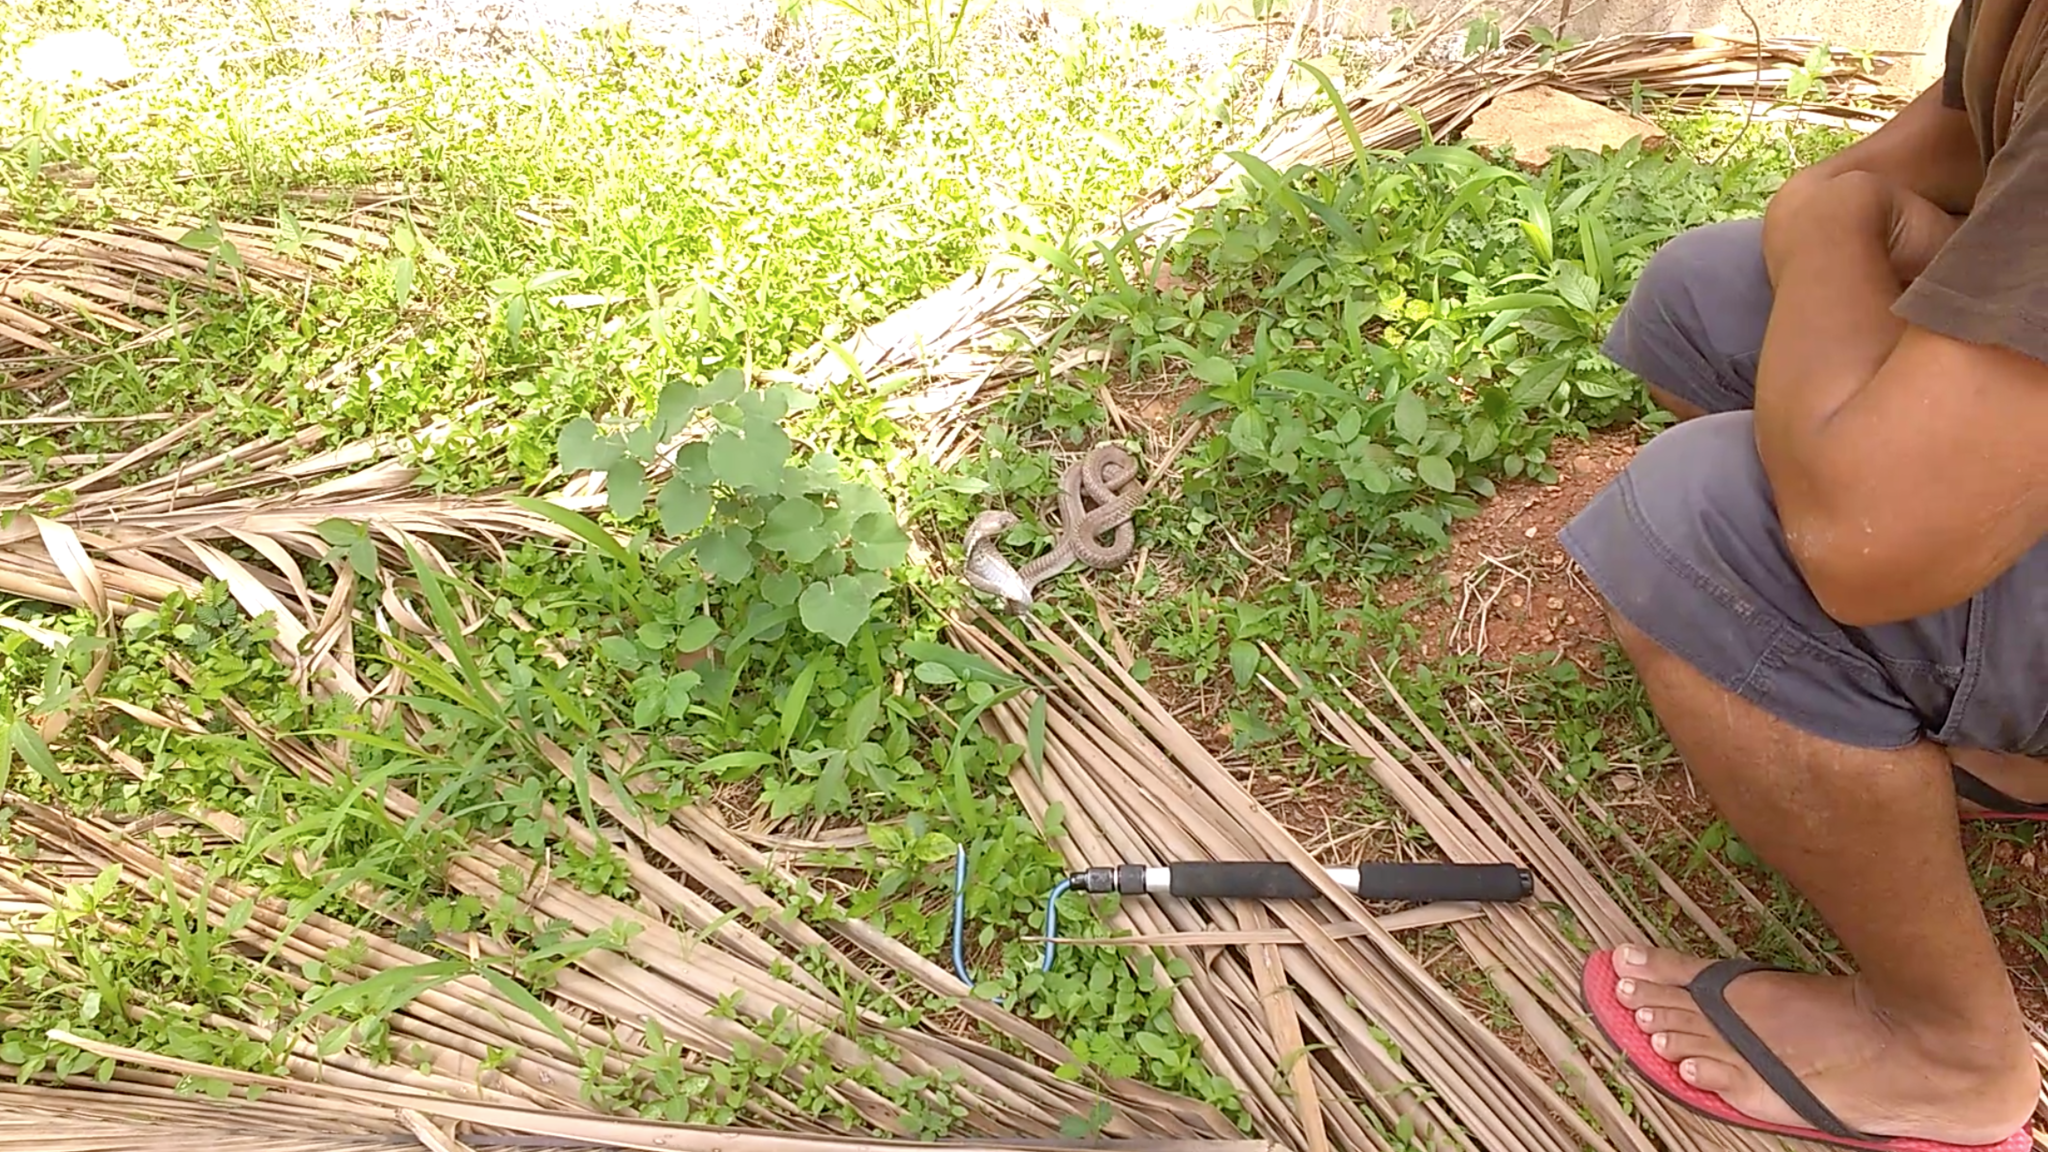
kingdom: Animalia
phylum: Chordata
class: Squamata
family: Elapidae
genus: Naja
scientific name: Naja naja
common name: Indian cobra
